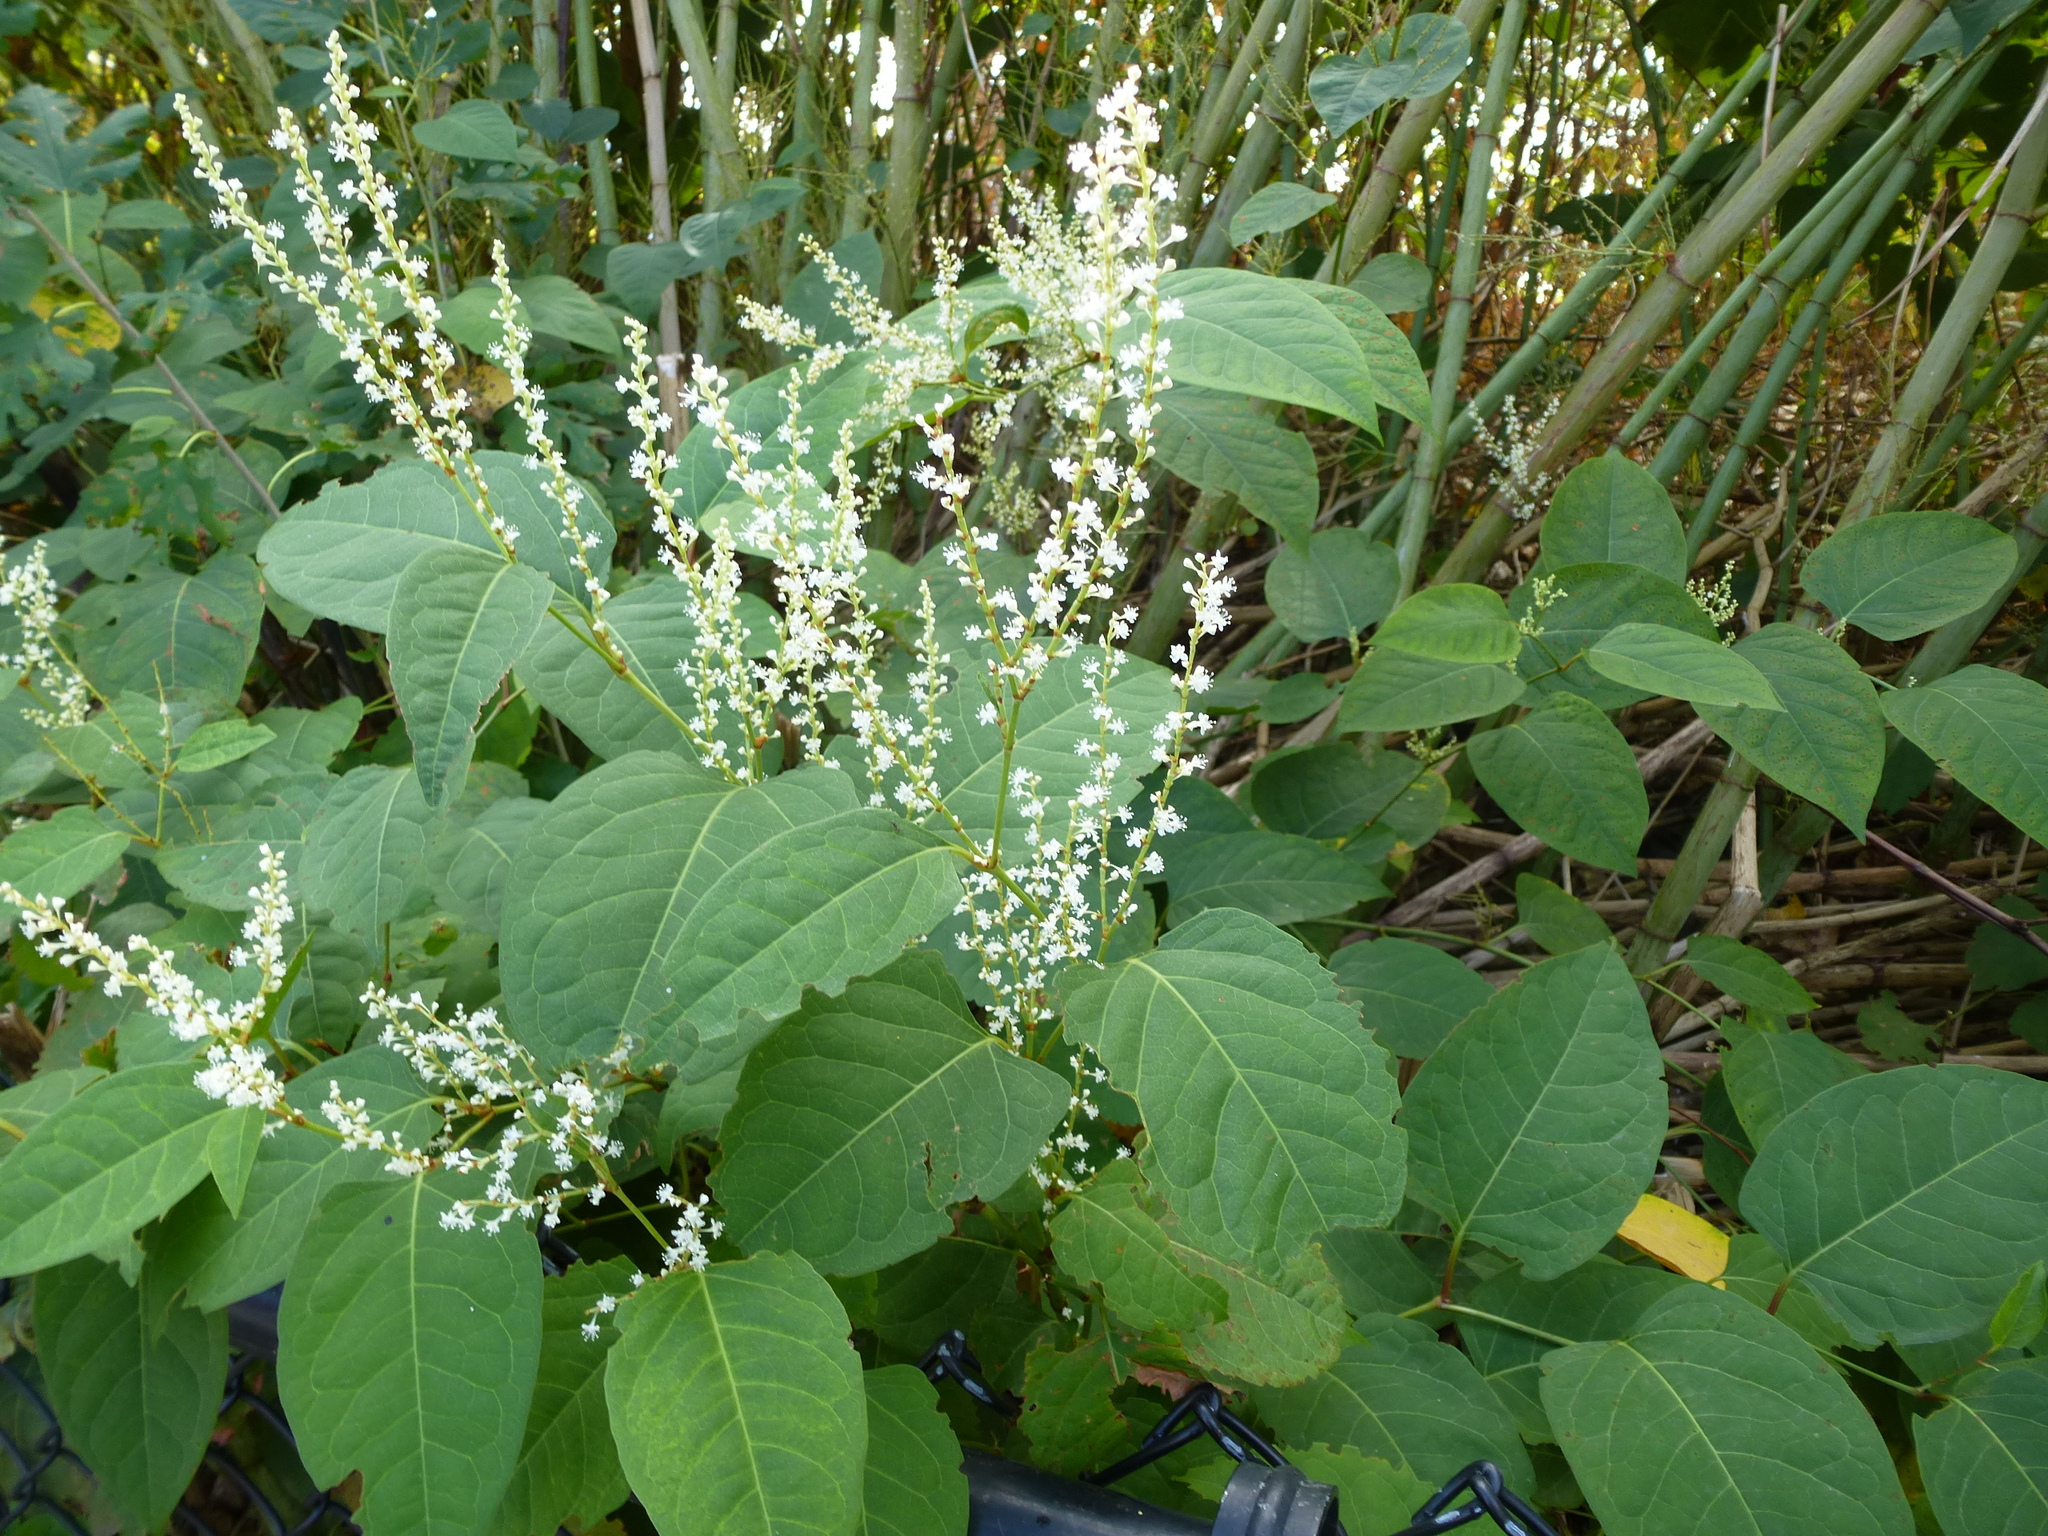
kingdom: Plantae
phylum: Tracheophyta
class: Magnoliopsida
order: Caryophyllales
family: Polygonaceae
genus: Reynoutria
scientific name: Reynoutria japonica
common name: Japanese knotweed
